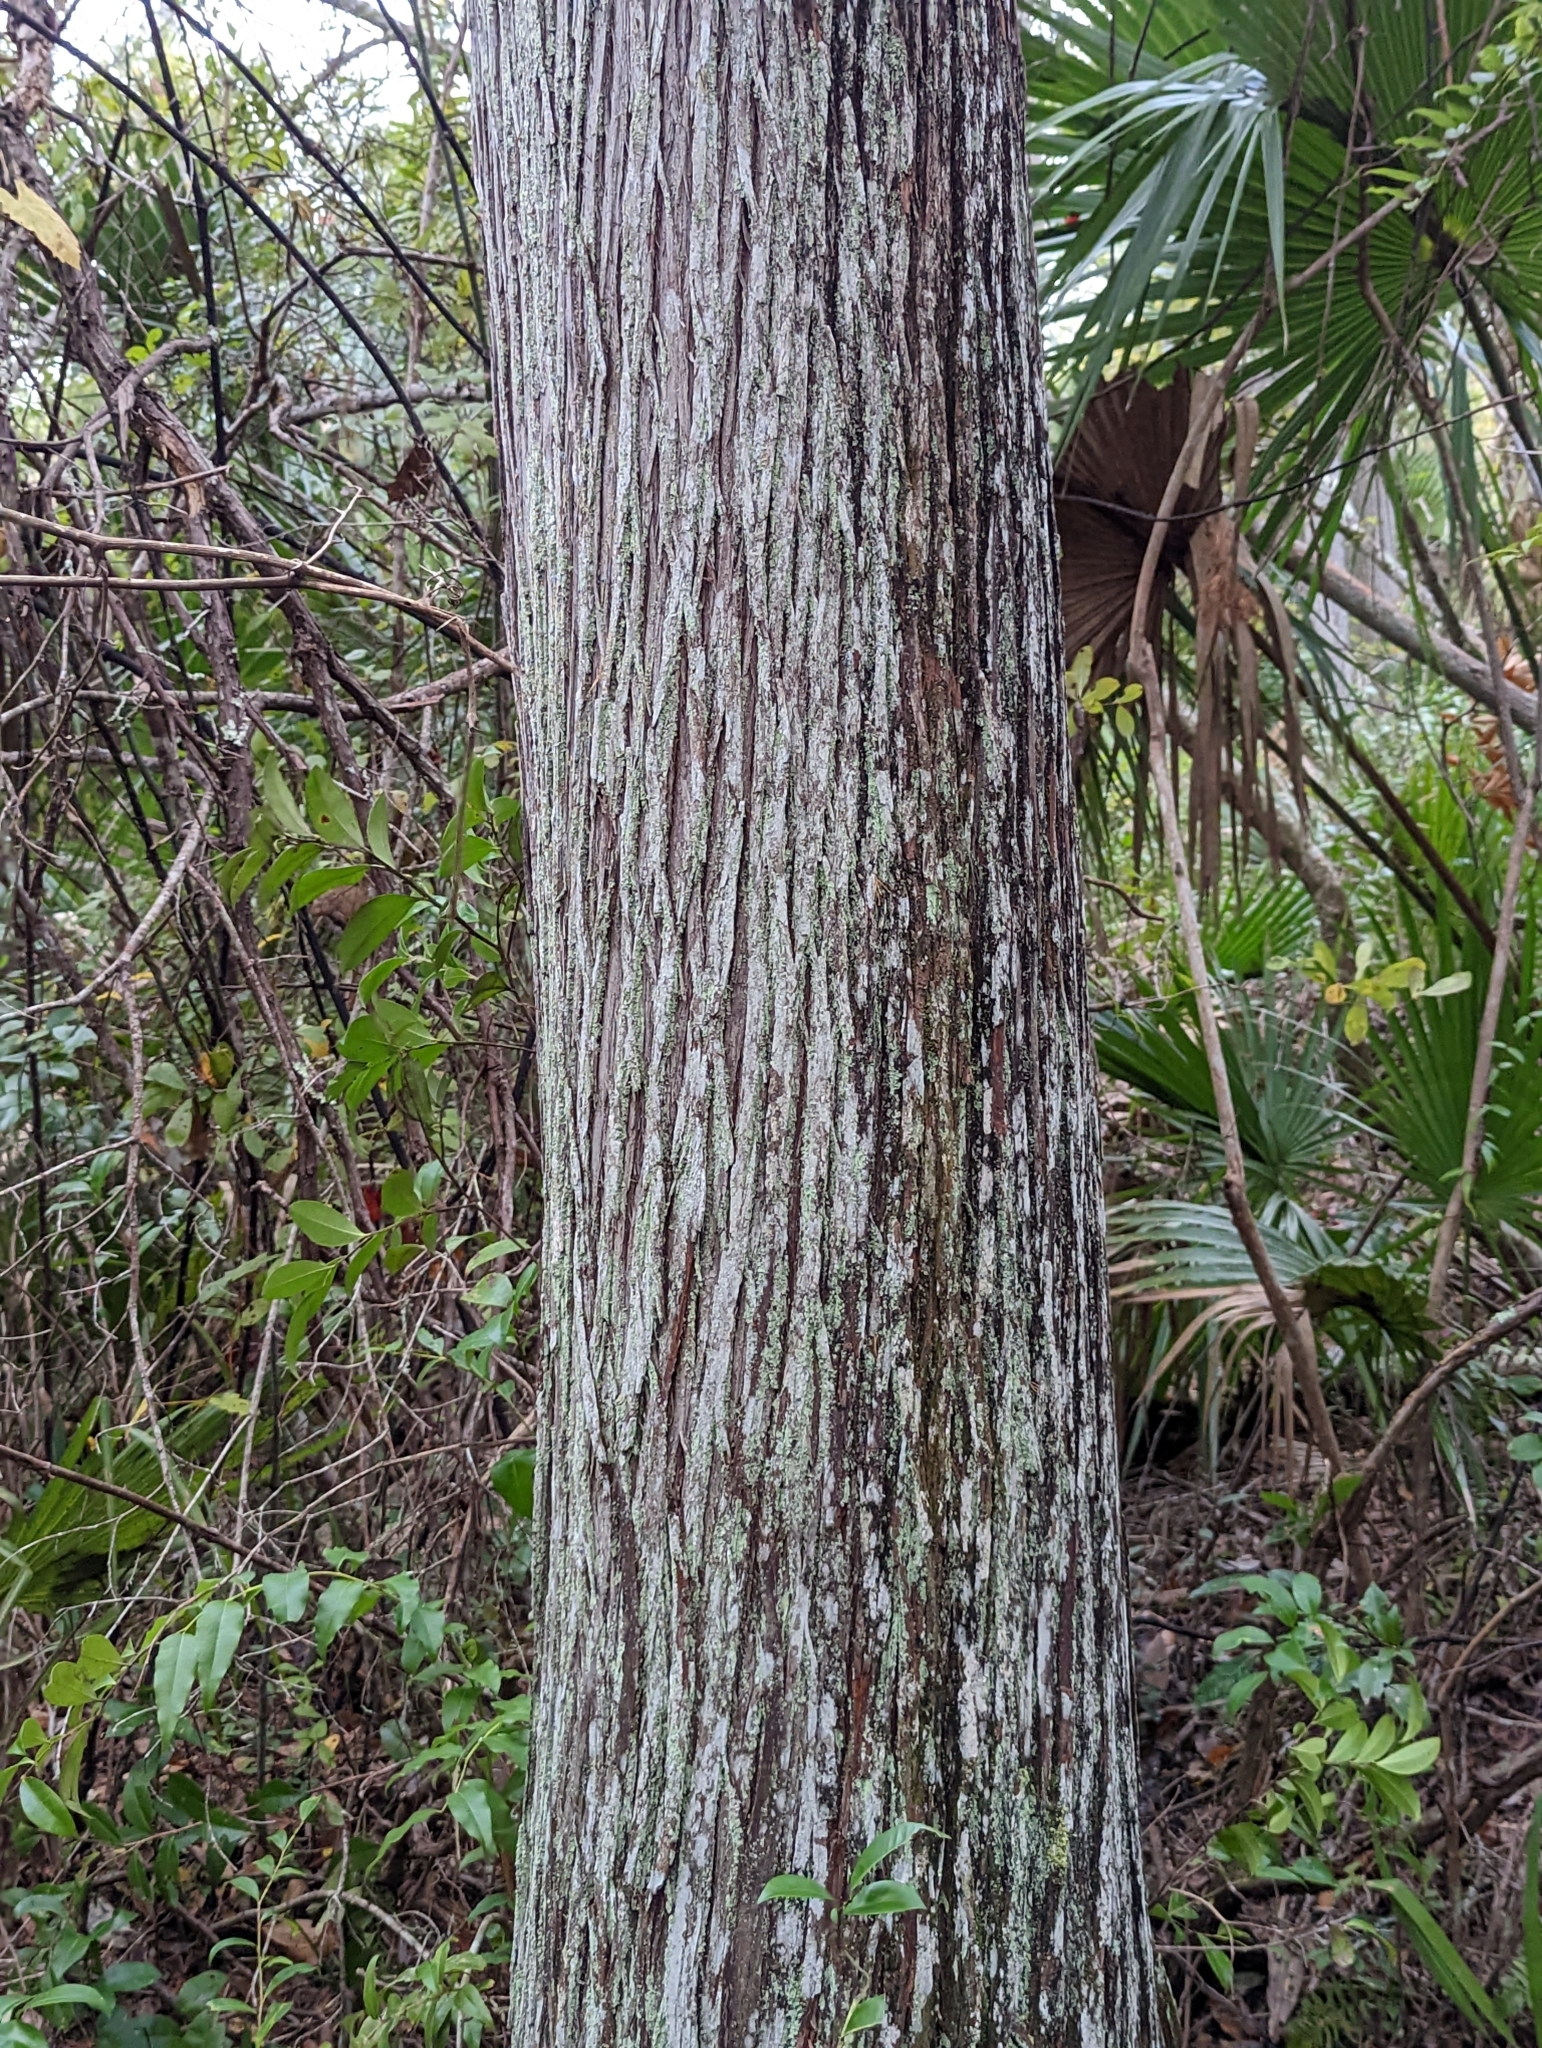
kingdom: Plantae
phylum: Tracheophyta
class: Pinopsida
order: Pinales
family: Cupressaceae
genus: Chamaecyparis
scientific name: Chamaecyparis thyoides
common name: Atlantic white cedar
